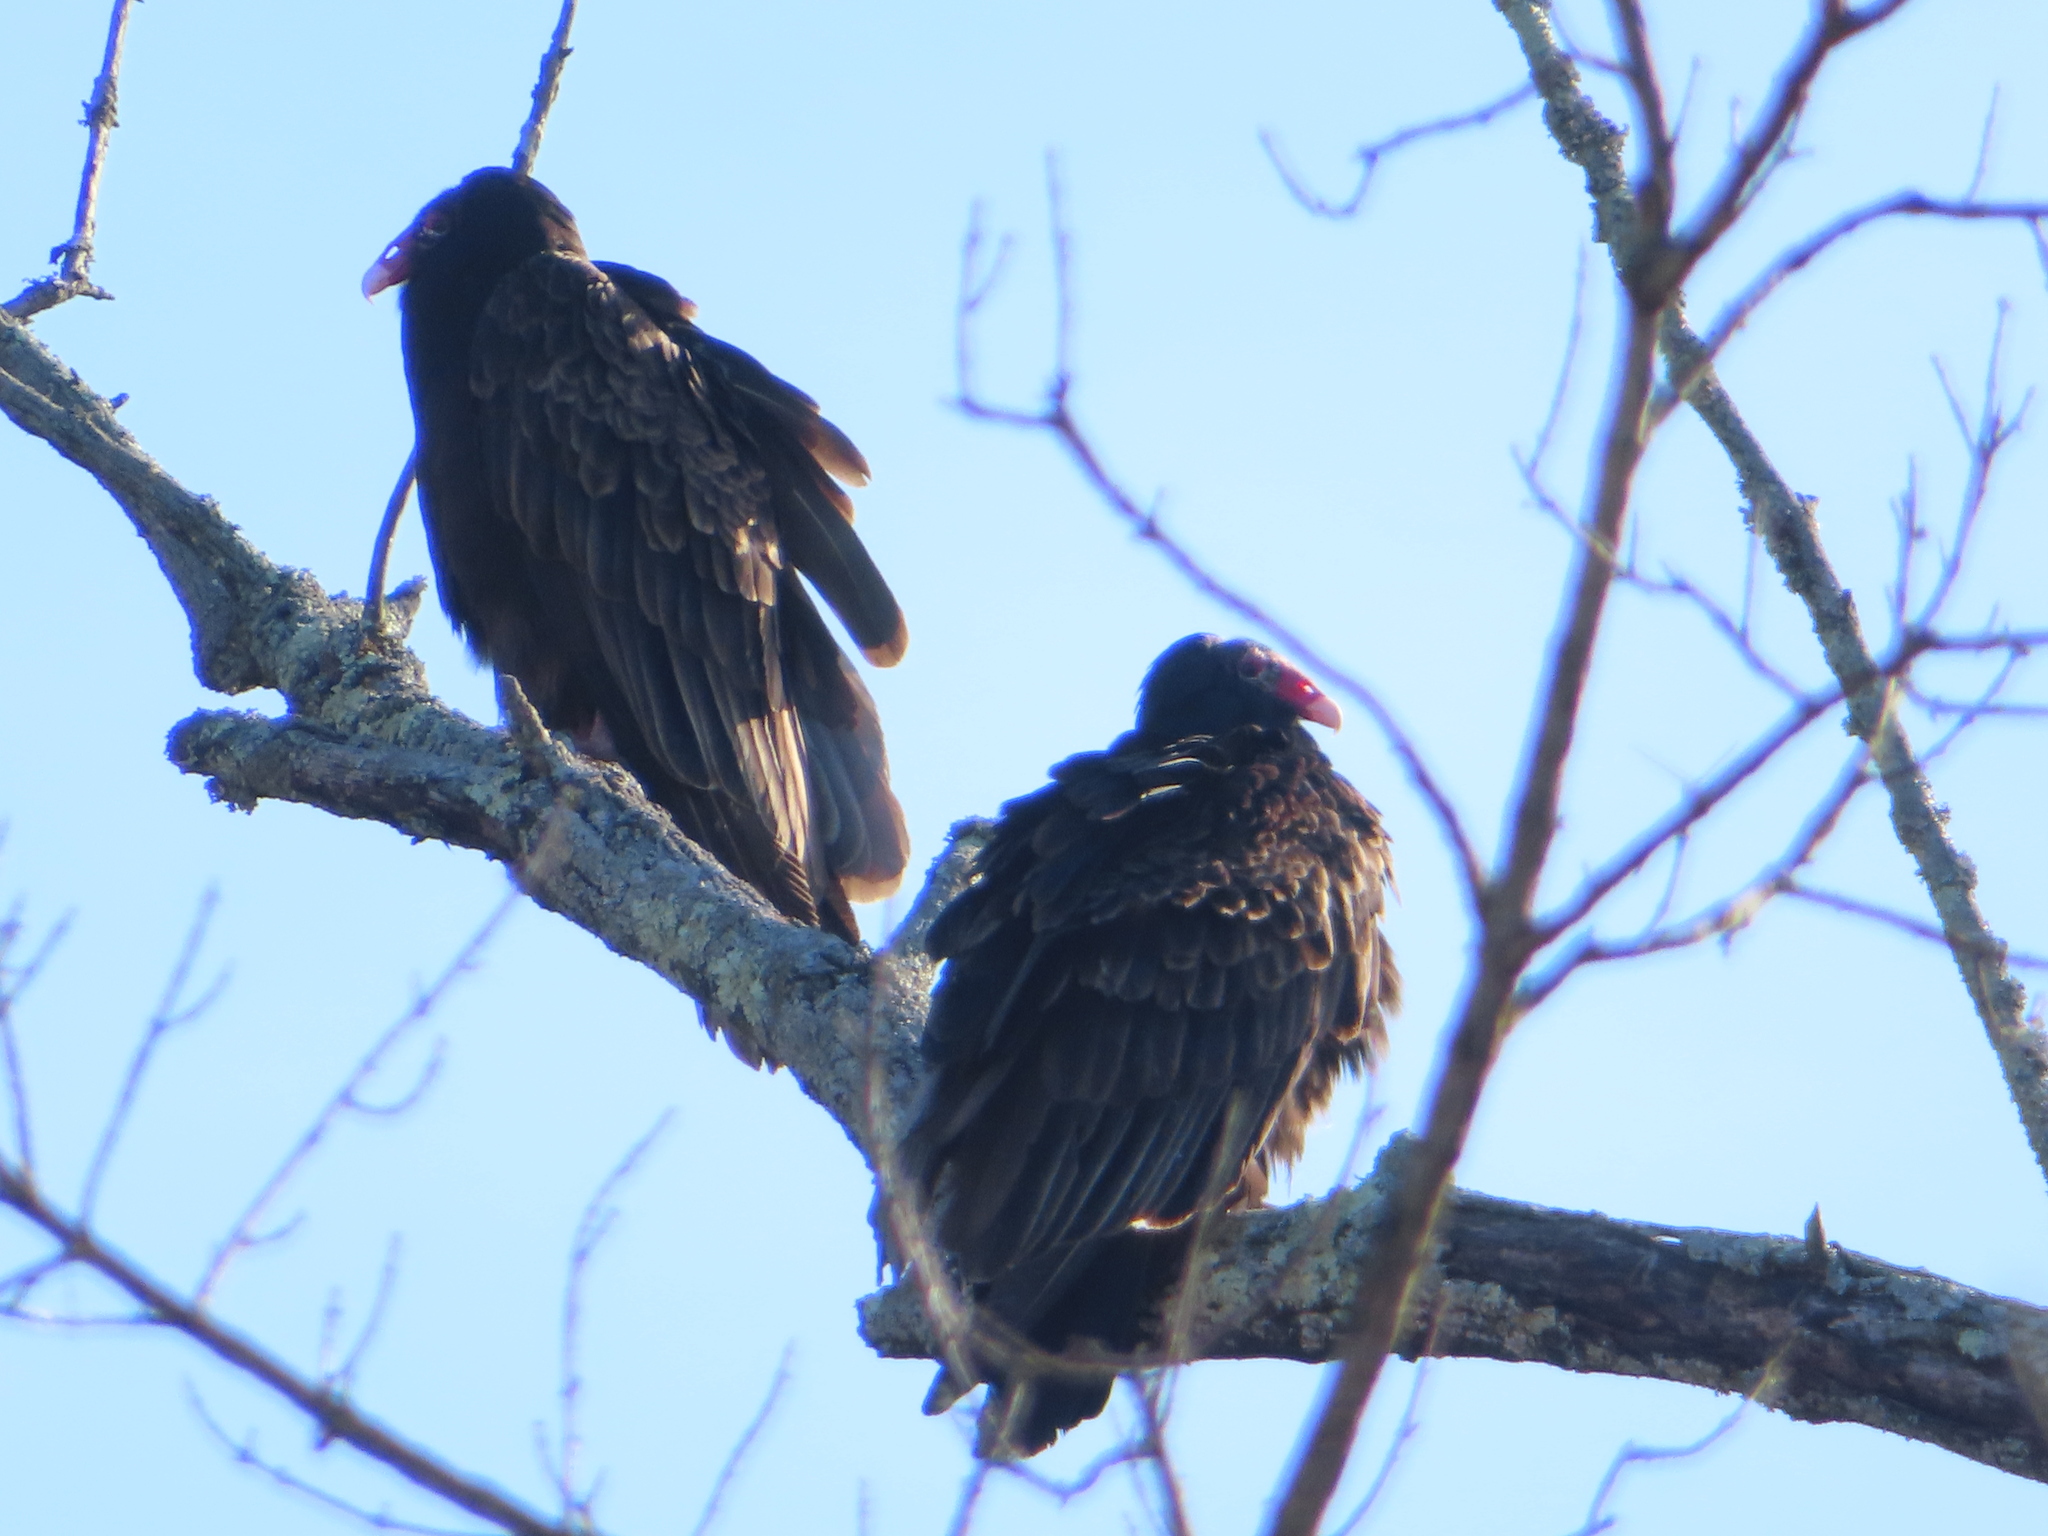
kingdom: Animalia
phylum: Chordata
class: Aves
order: Accipitriformes
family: Cathartidae
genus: Cathartes
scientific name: Cathartes aura
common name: Turkey vulture
